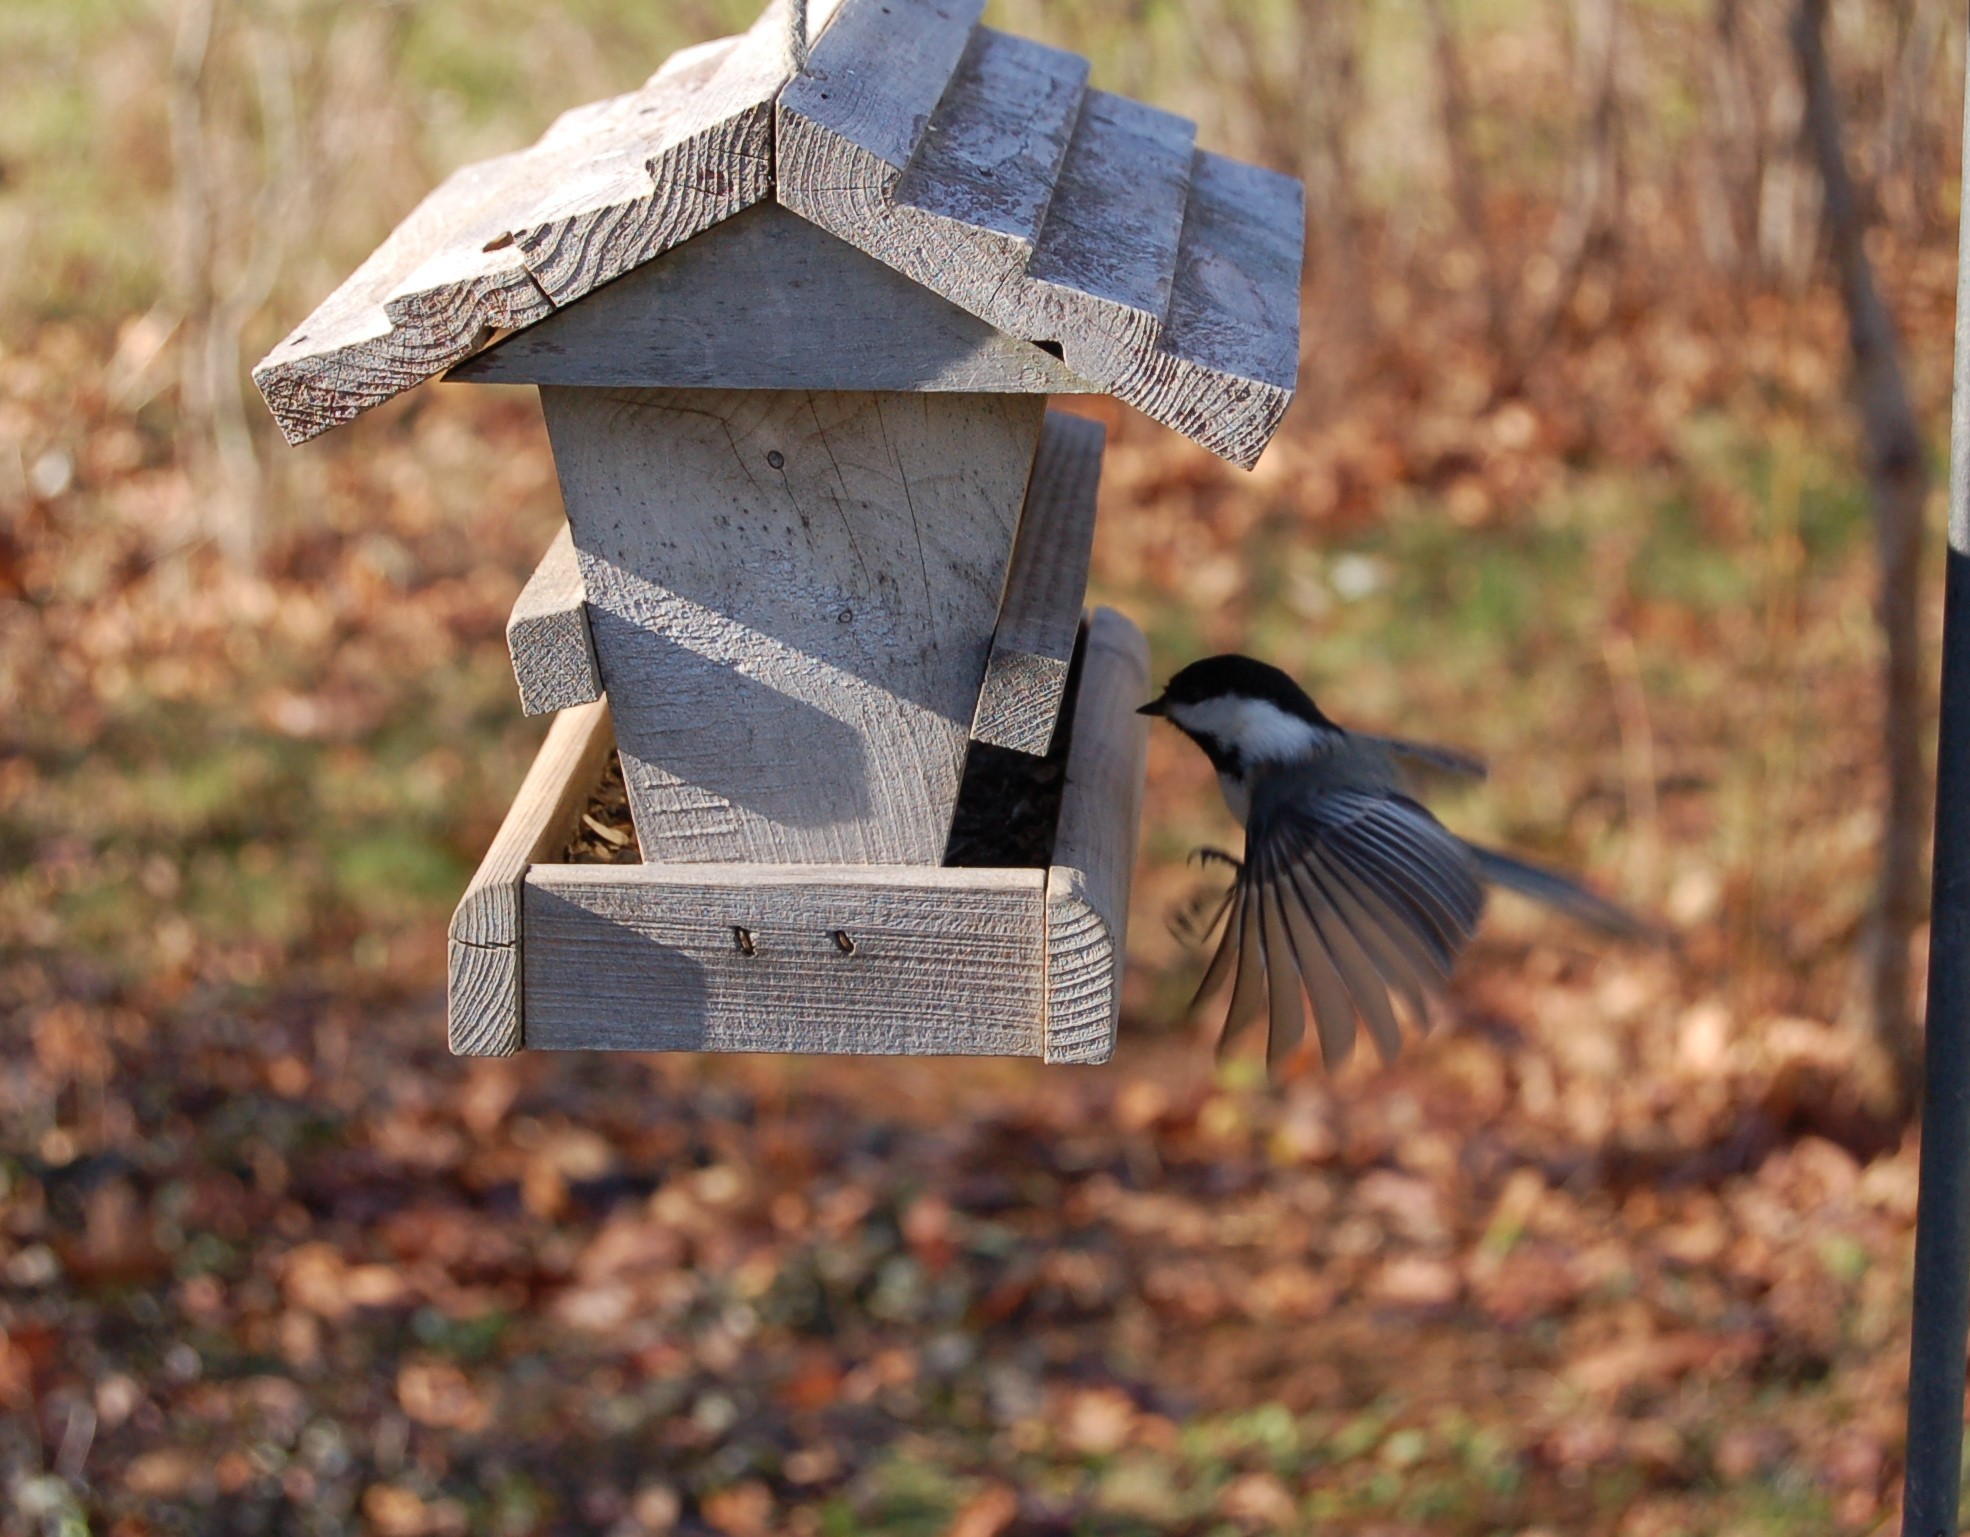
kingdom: Animalia
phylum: Chordata
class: Aves
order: Passeriformes
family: Paridae
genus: Poecile
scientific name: Poecile atricapillus
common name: Black-capped chickadee
